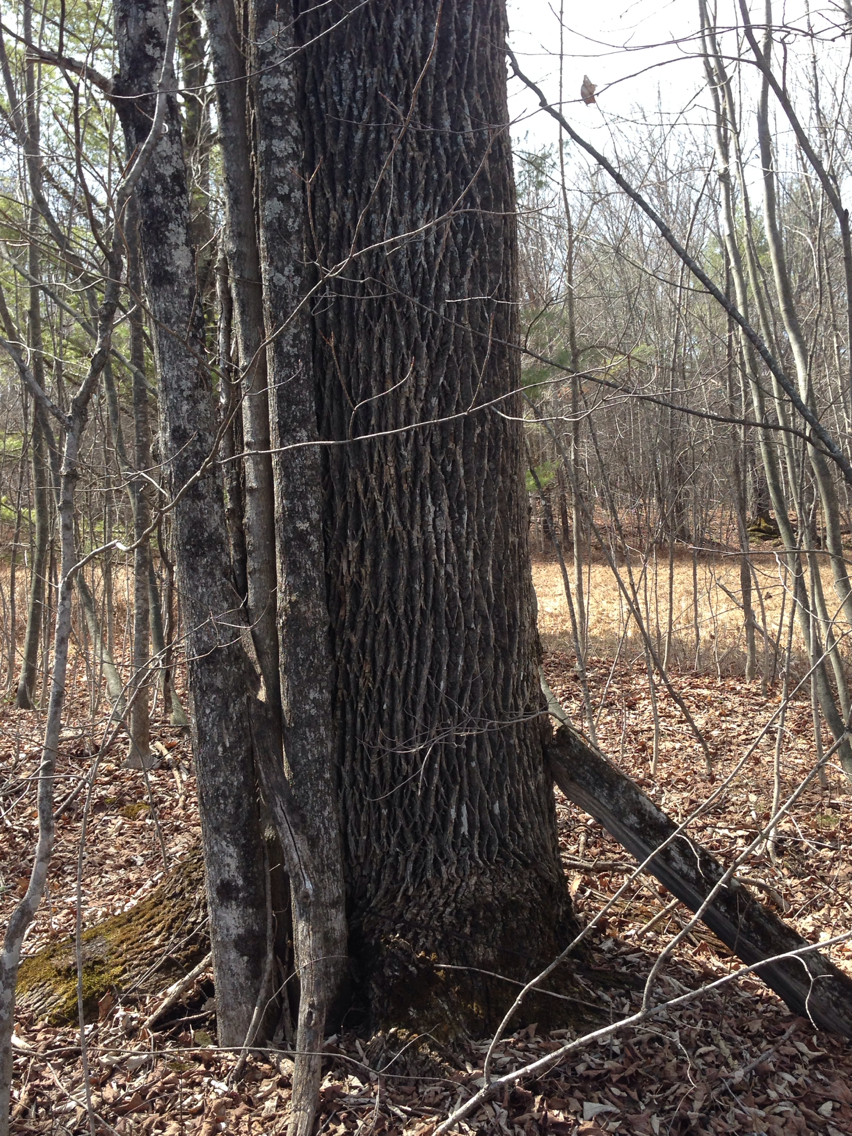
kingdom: Plantae
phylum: Tracheophyta
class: Magnoliopsida
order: Lamiales
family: Oleaceae
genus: Fraxinus
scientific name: Fraxinus americana
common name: White ash
